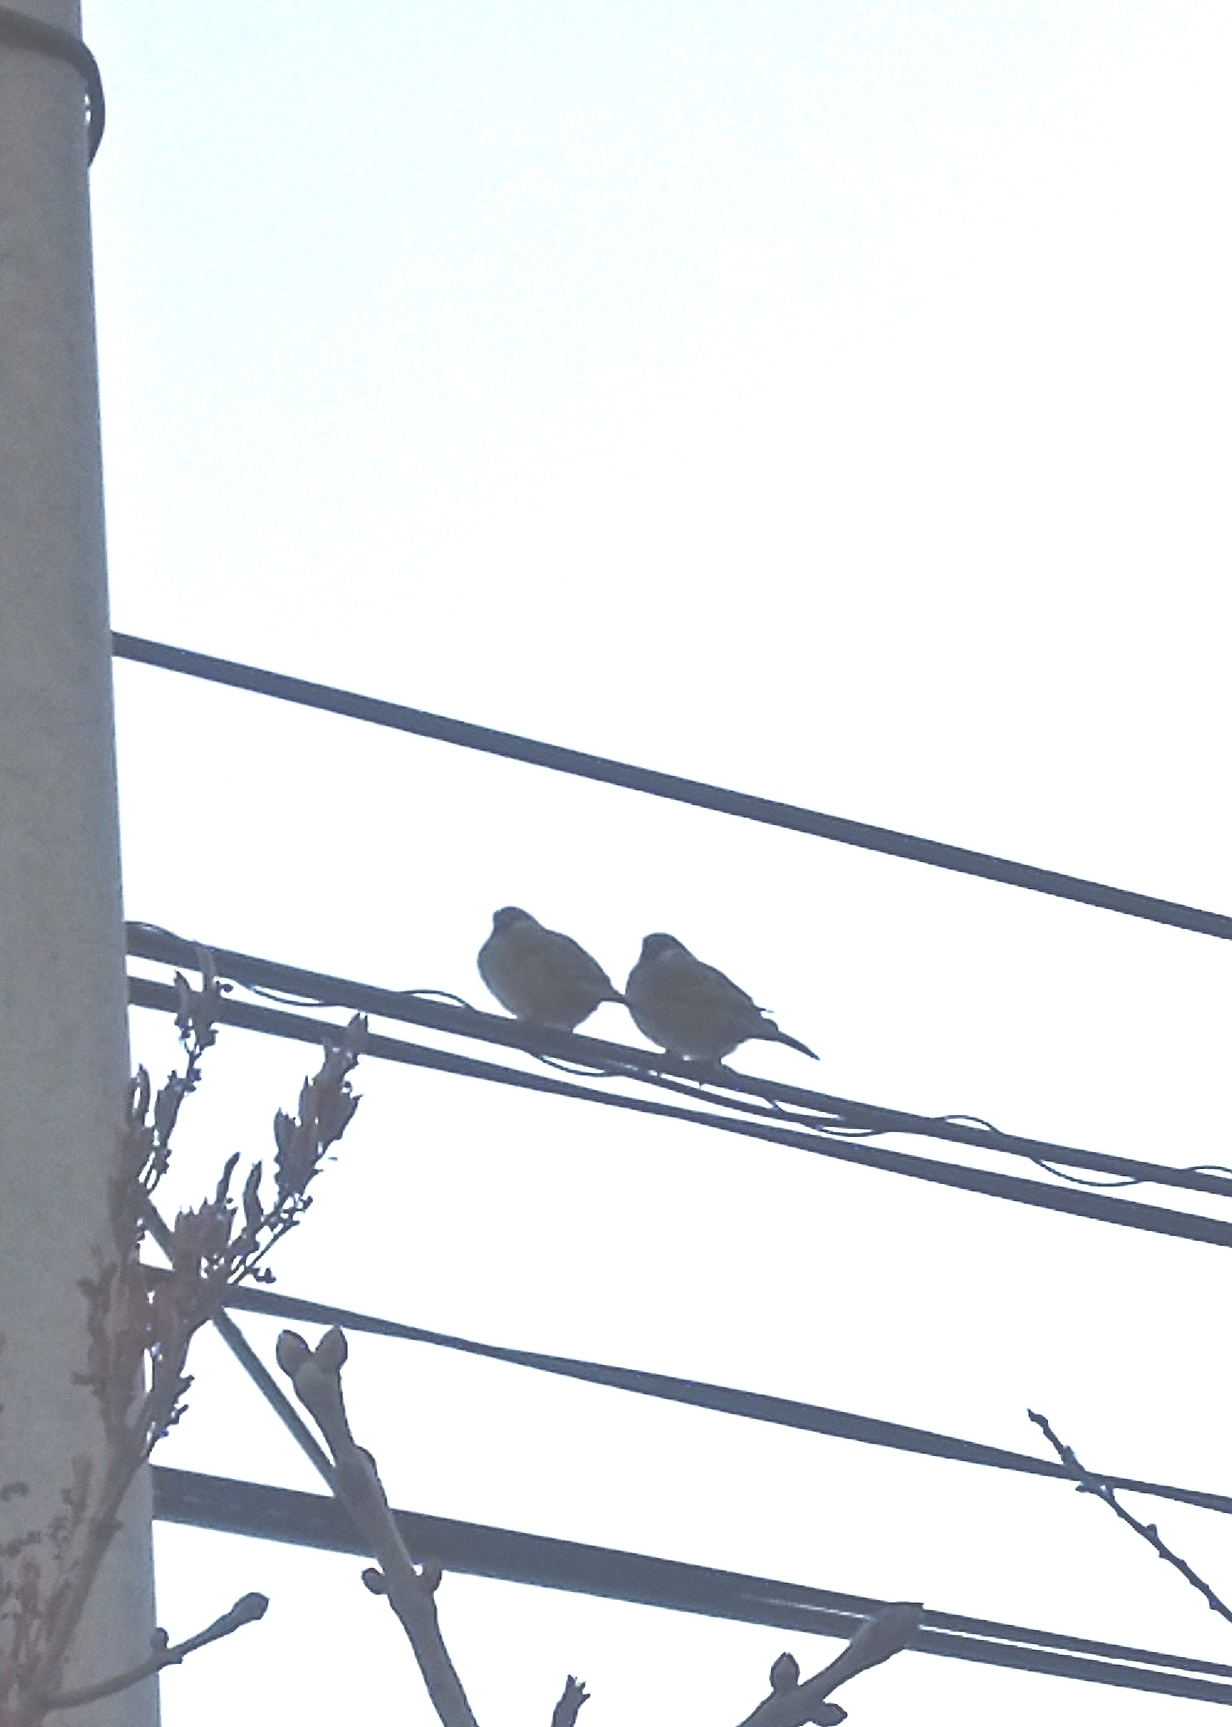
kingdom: Animalia
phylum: Chordata
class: Aves
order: Passeriformes
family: Passeridae
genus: Passer
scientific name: Passer montanus
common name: Eurasian tree sparrow
